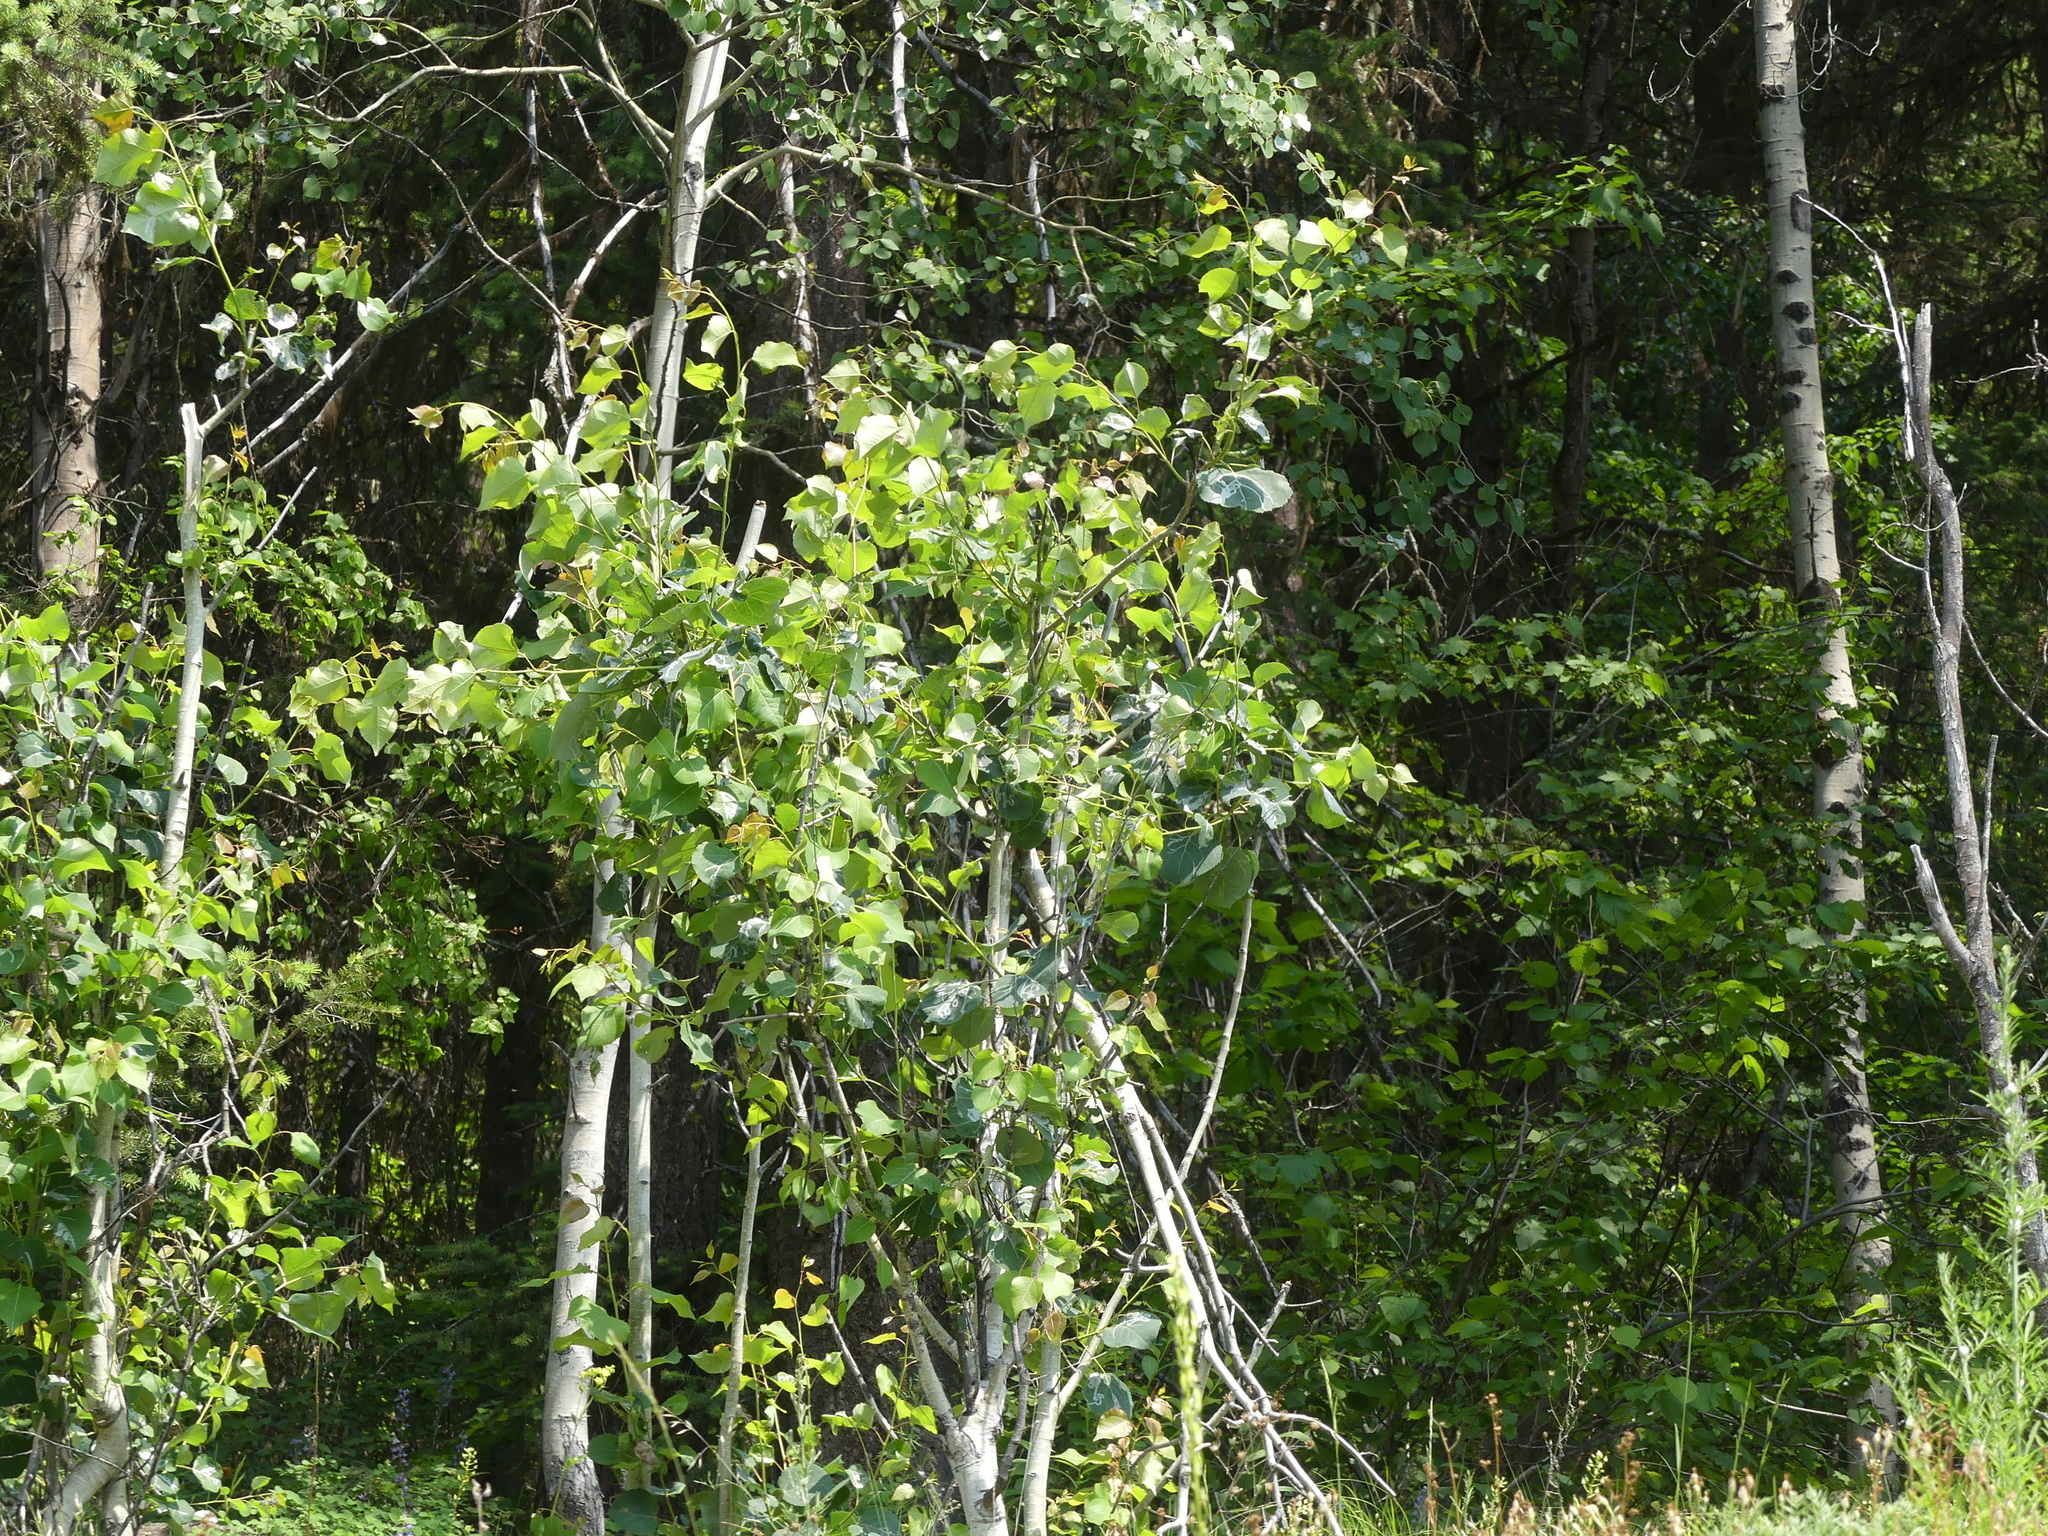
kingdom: Plantae
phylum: Tracheophyta
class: Magnoliopsida
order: Malpighiales
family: Salicaceae
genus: Populus
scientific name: Populus tremuloides
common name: Quaking aspen
